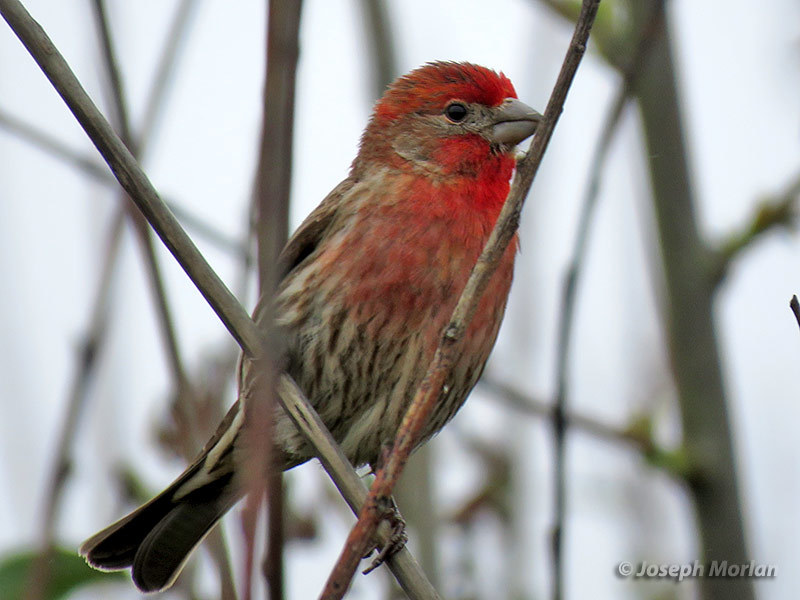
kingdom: Animalia
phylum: Chordata
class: Aves
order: Passeriformes
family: Fringillidae
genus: Haemorhous
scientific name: Haemorhous mexicanus
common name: House finch
